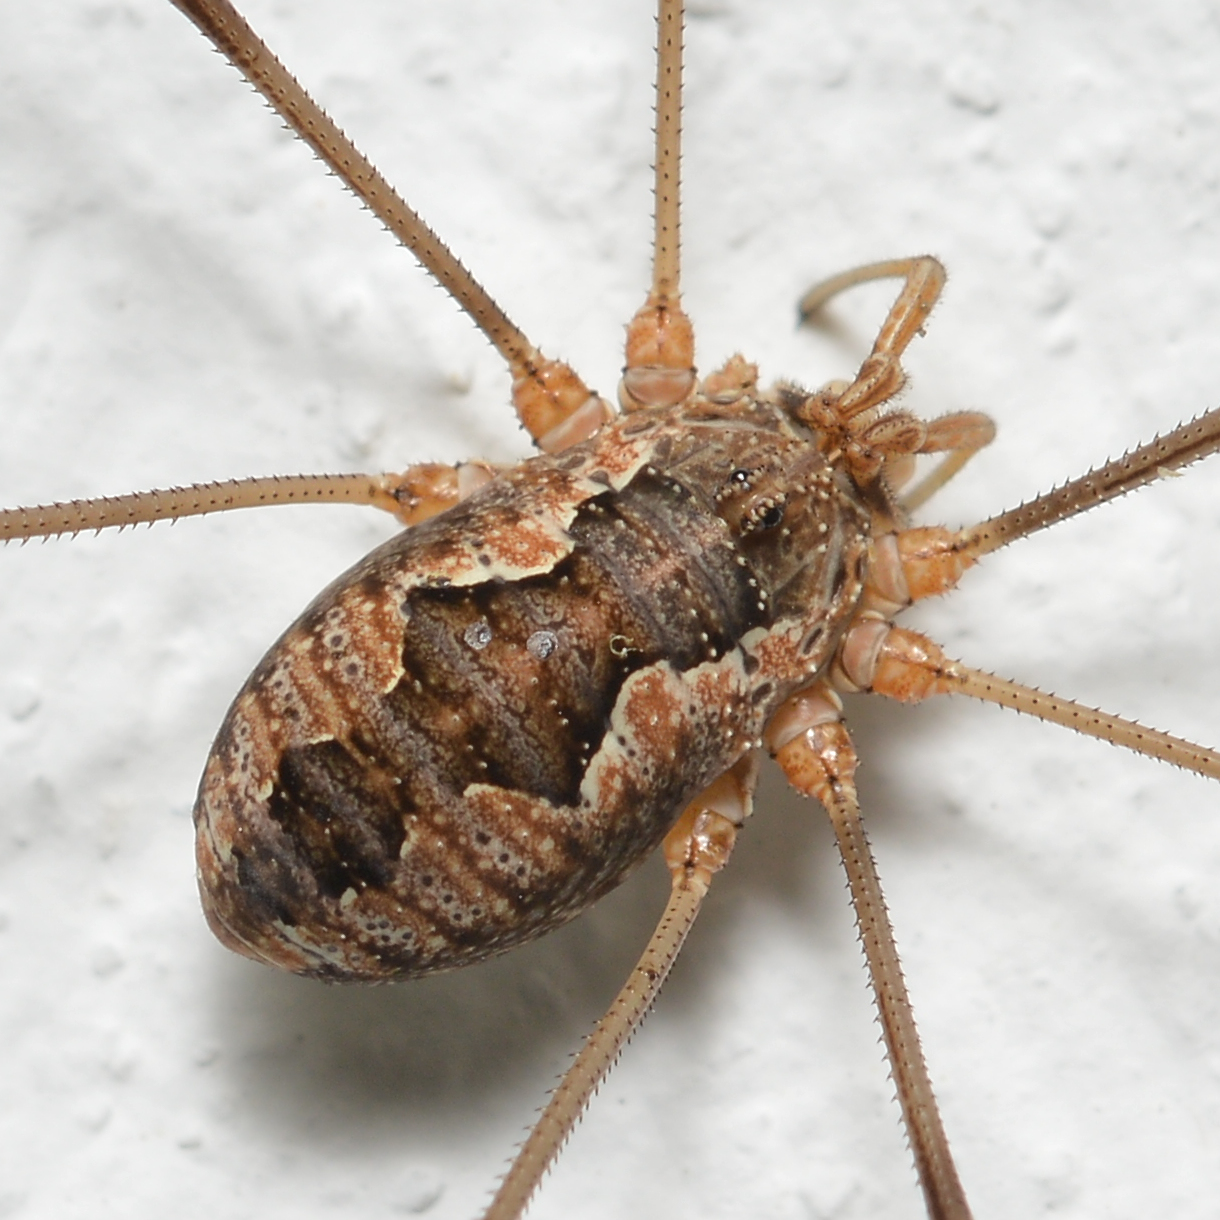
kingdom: Animalia
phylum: Arthropoda
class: Arachnida
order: Opiliones
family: Phalangiidae
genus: Phalangium
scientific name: Phalangium opilio
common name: Daddy longleg
